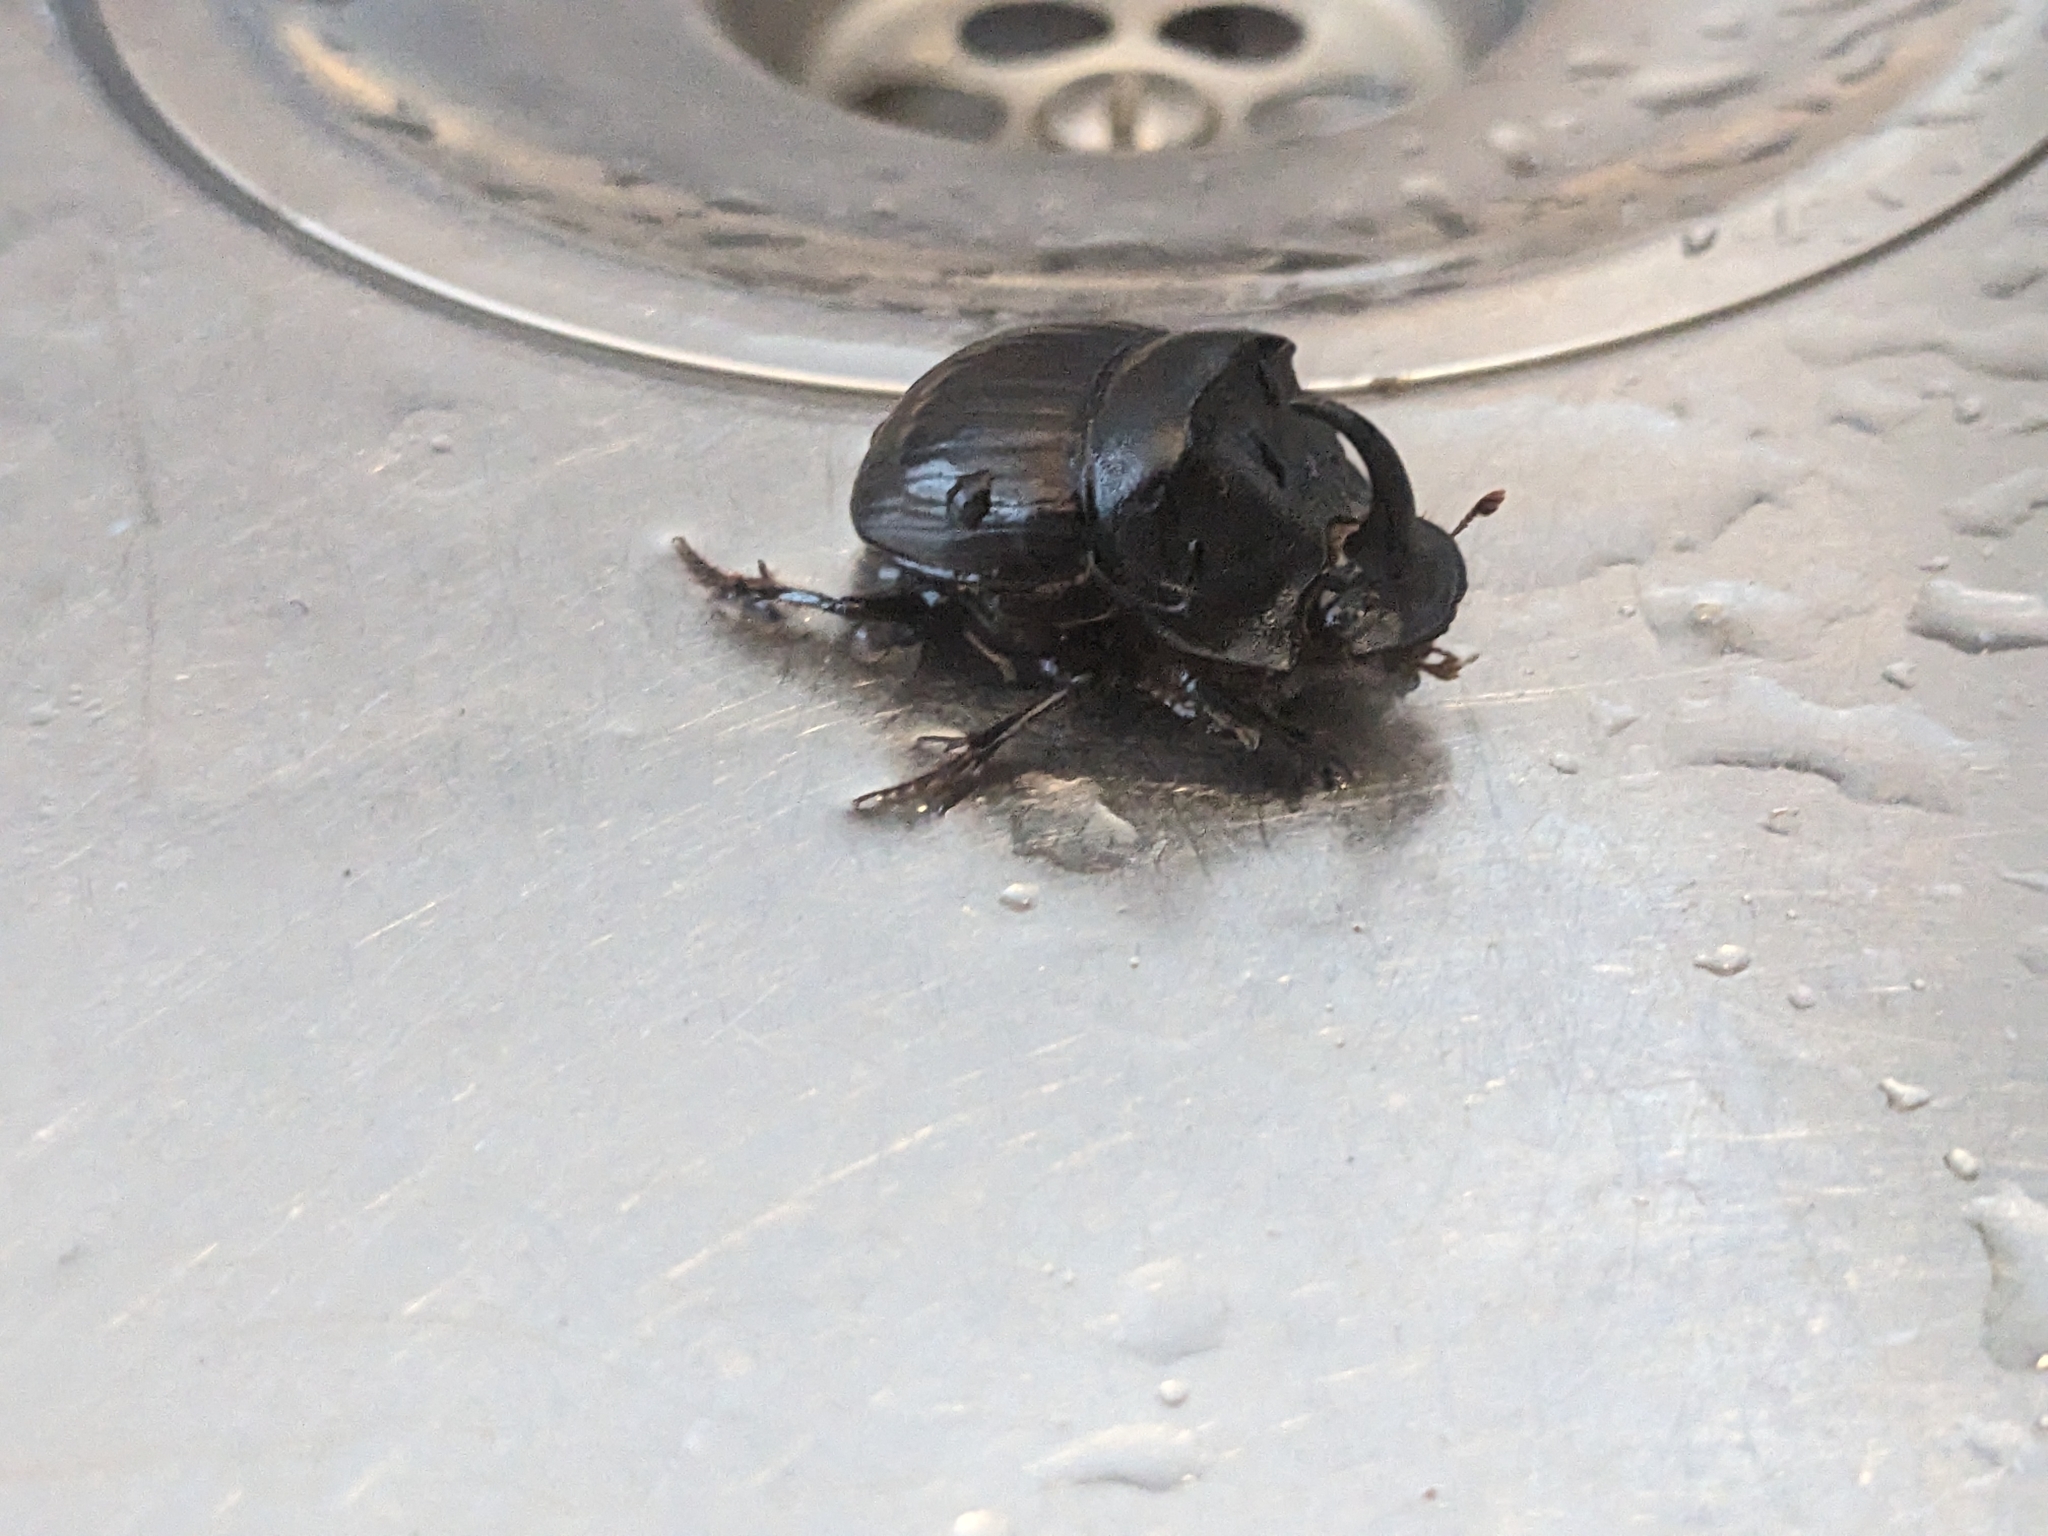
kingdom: Animalia
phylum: Arthropoda
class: Insecta
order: Coleoptera
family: Scarabaeidae
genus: Copris
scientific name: Copris hispanus
